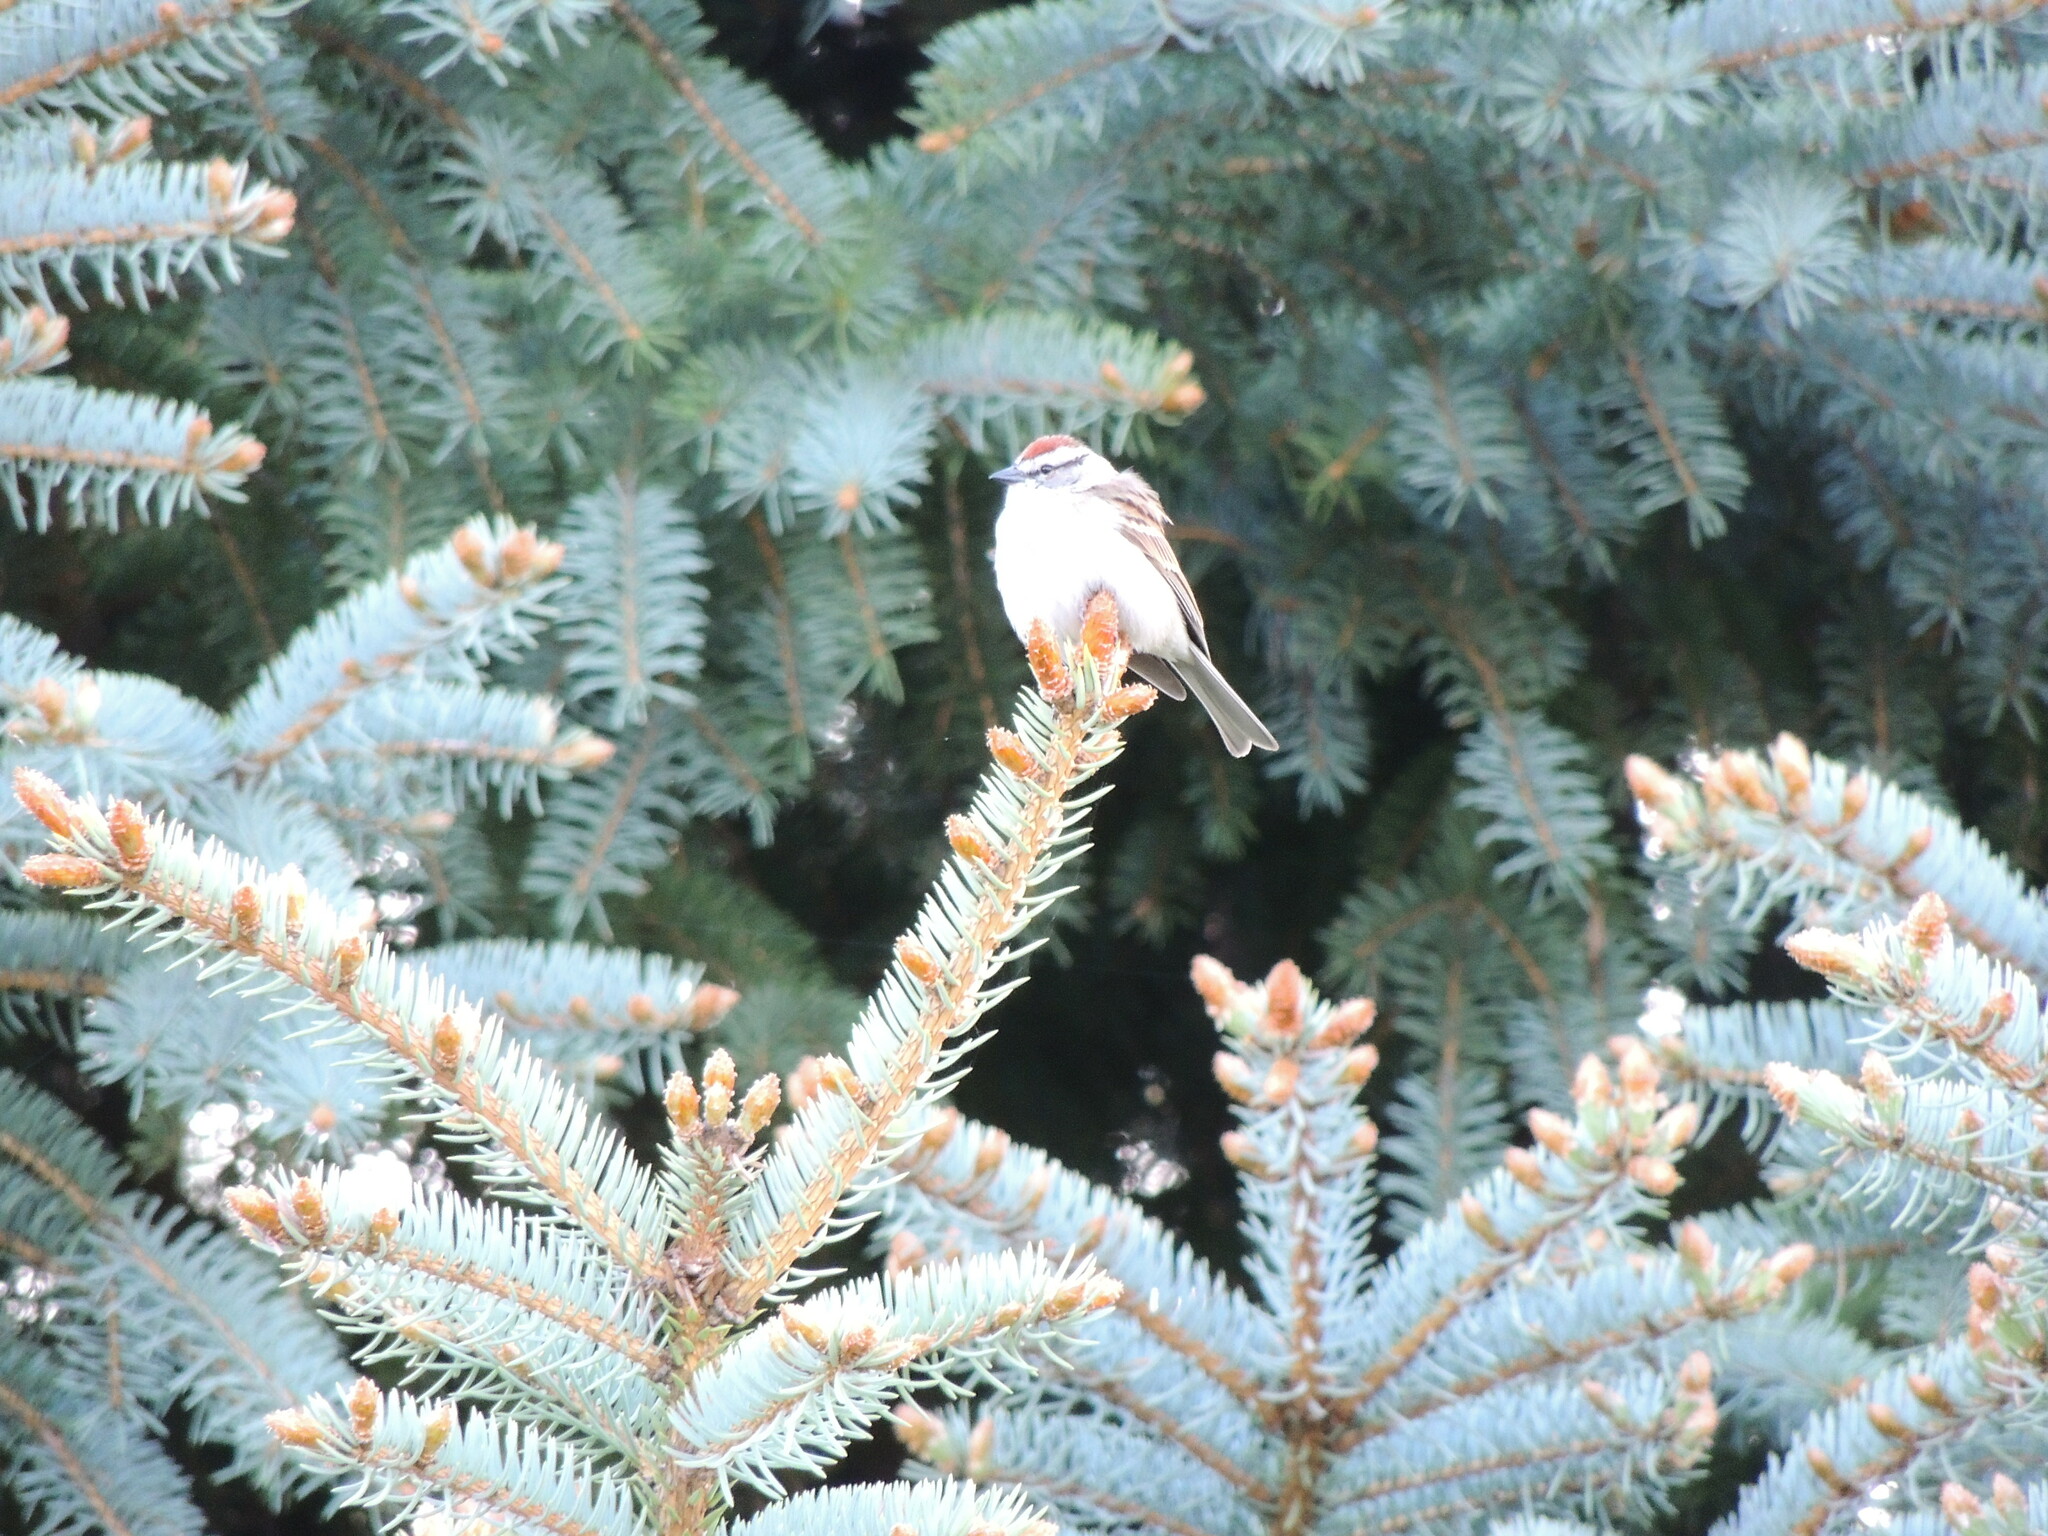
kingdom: Animalia
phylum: Chordata
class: Aves
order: Passeriformes
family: Passerellidae
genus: Spizella
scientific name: Spizella passerina
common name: Chipping sparrow
